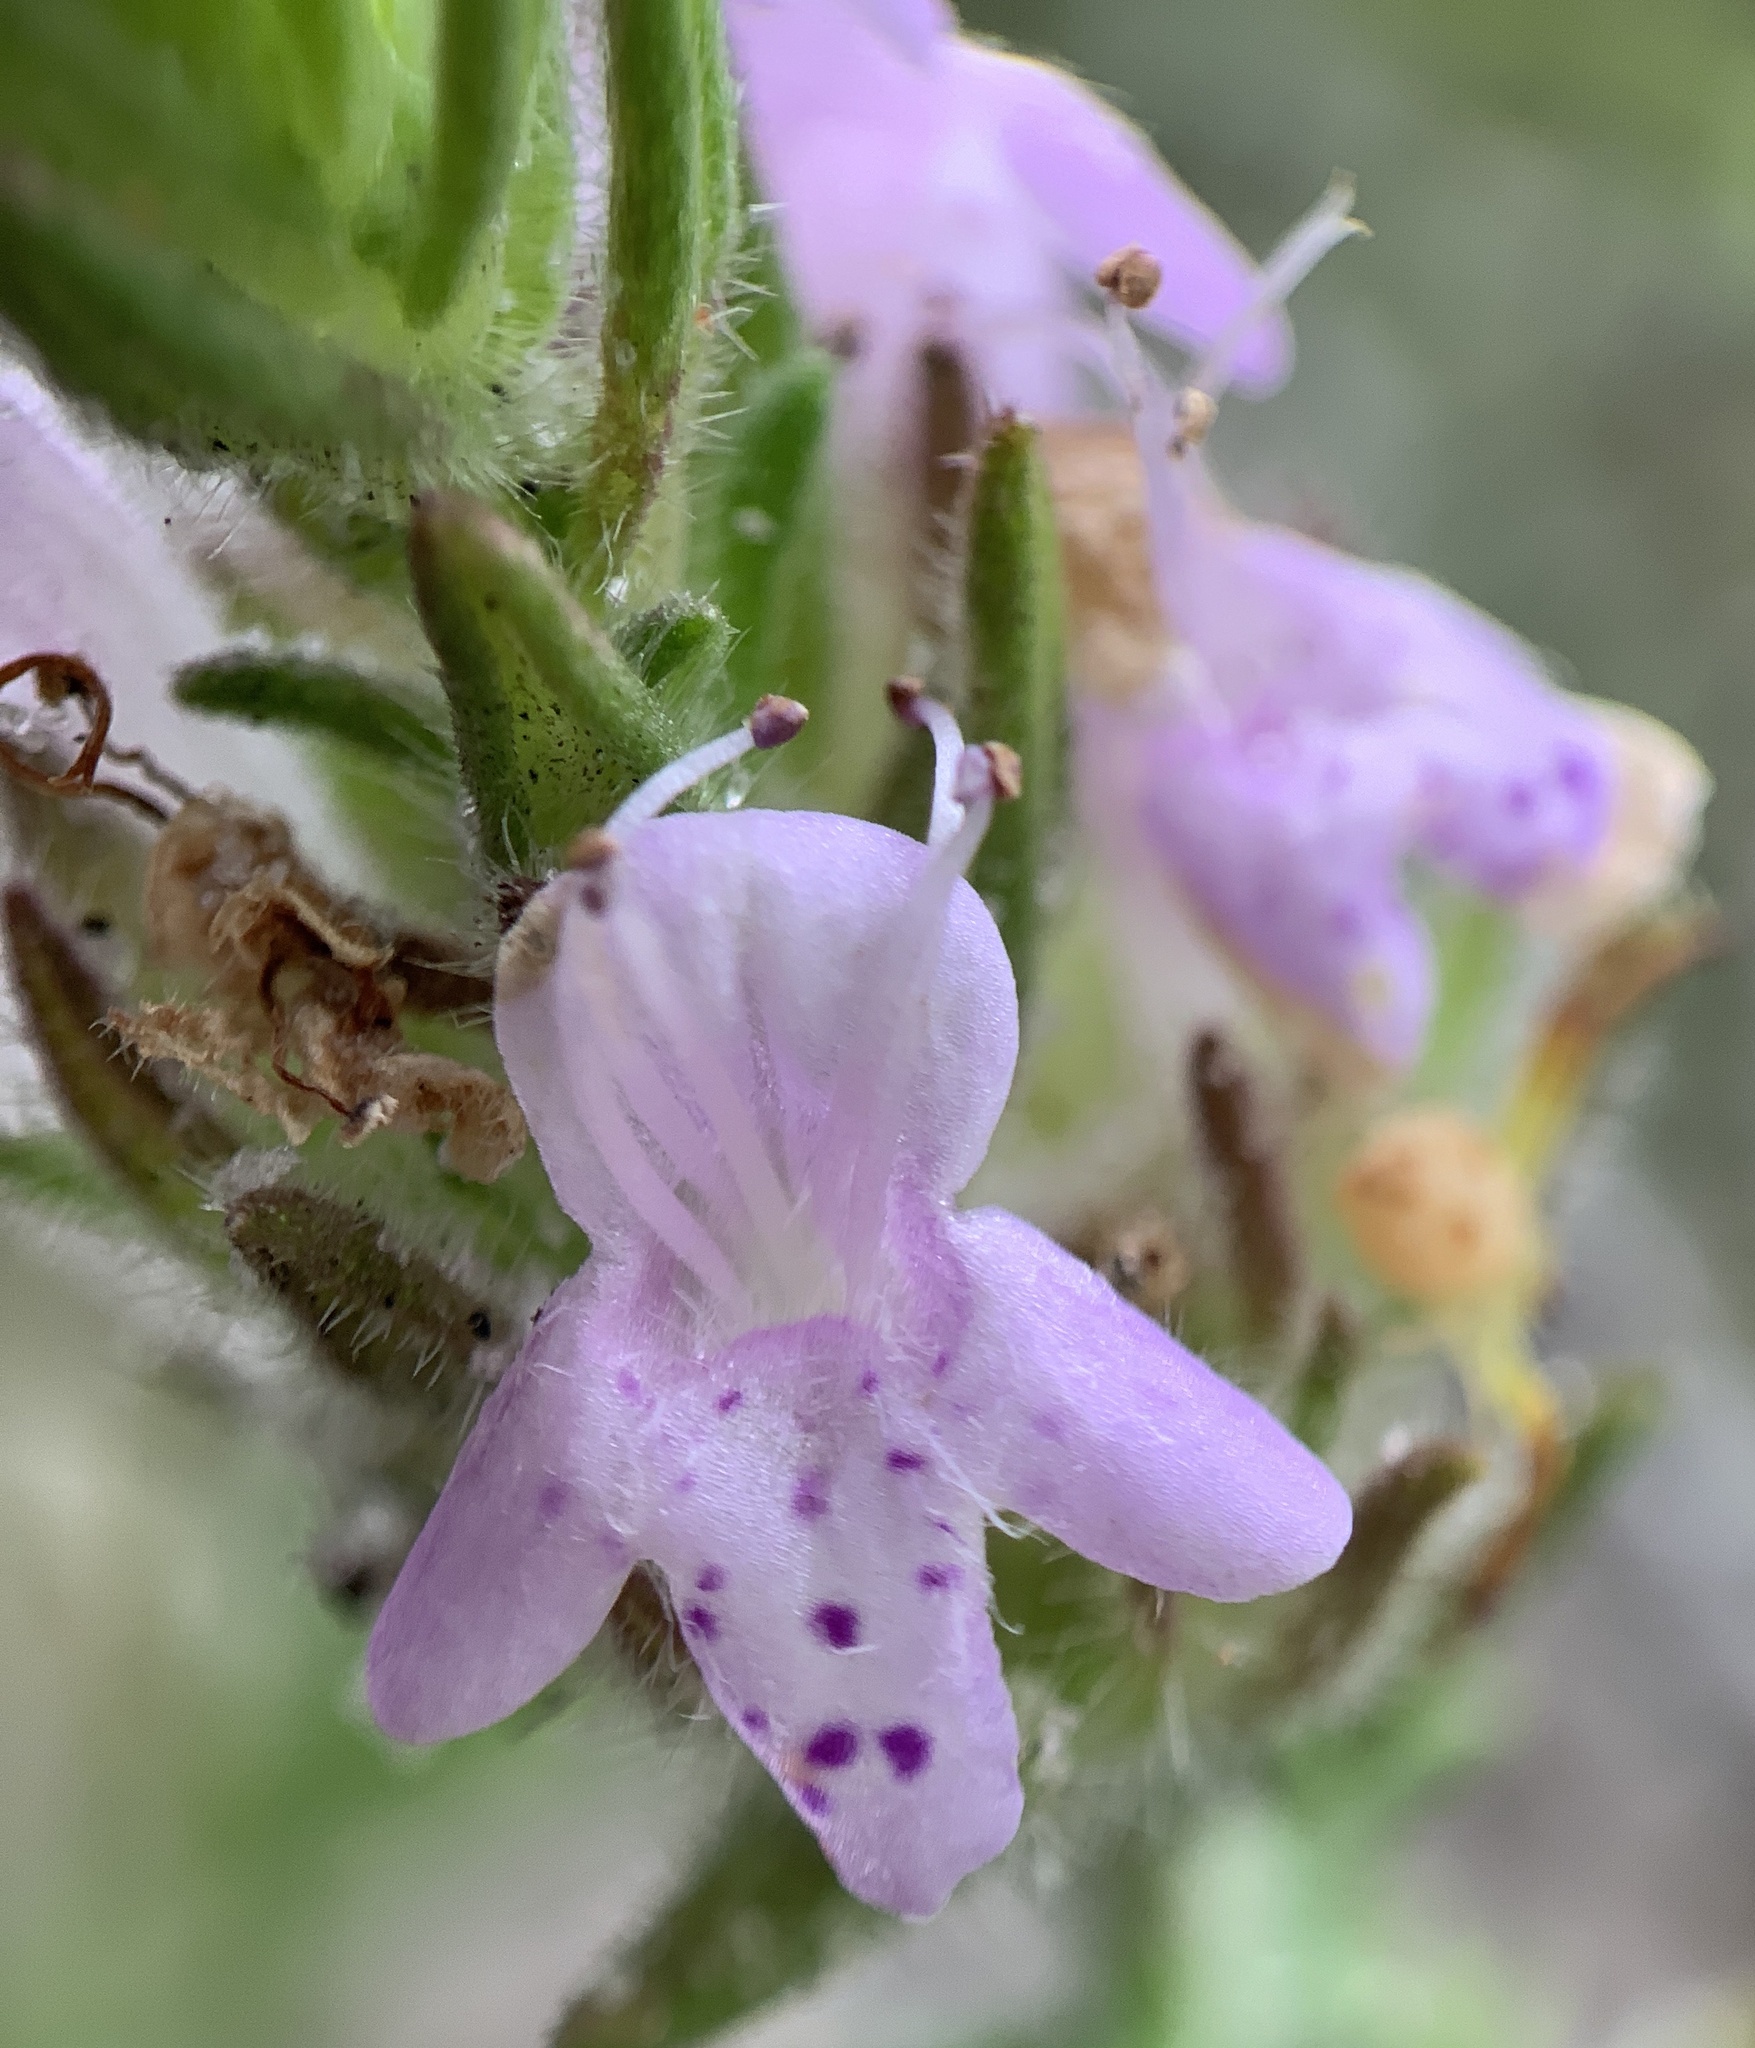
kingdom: Plantae
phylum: Tracheophyta
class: Magnoliopsida
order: Lamiales
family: Lamiaceae
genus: Piloblephis
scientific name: Piloblephis rigida
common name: Wild pennyroyal
